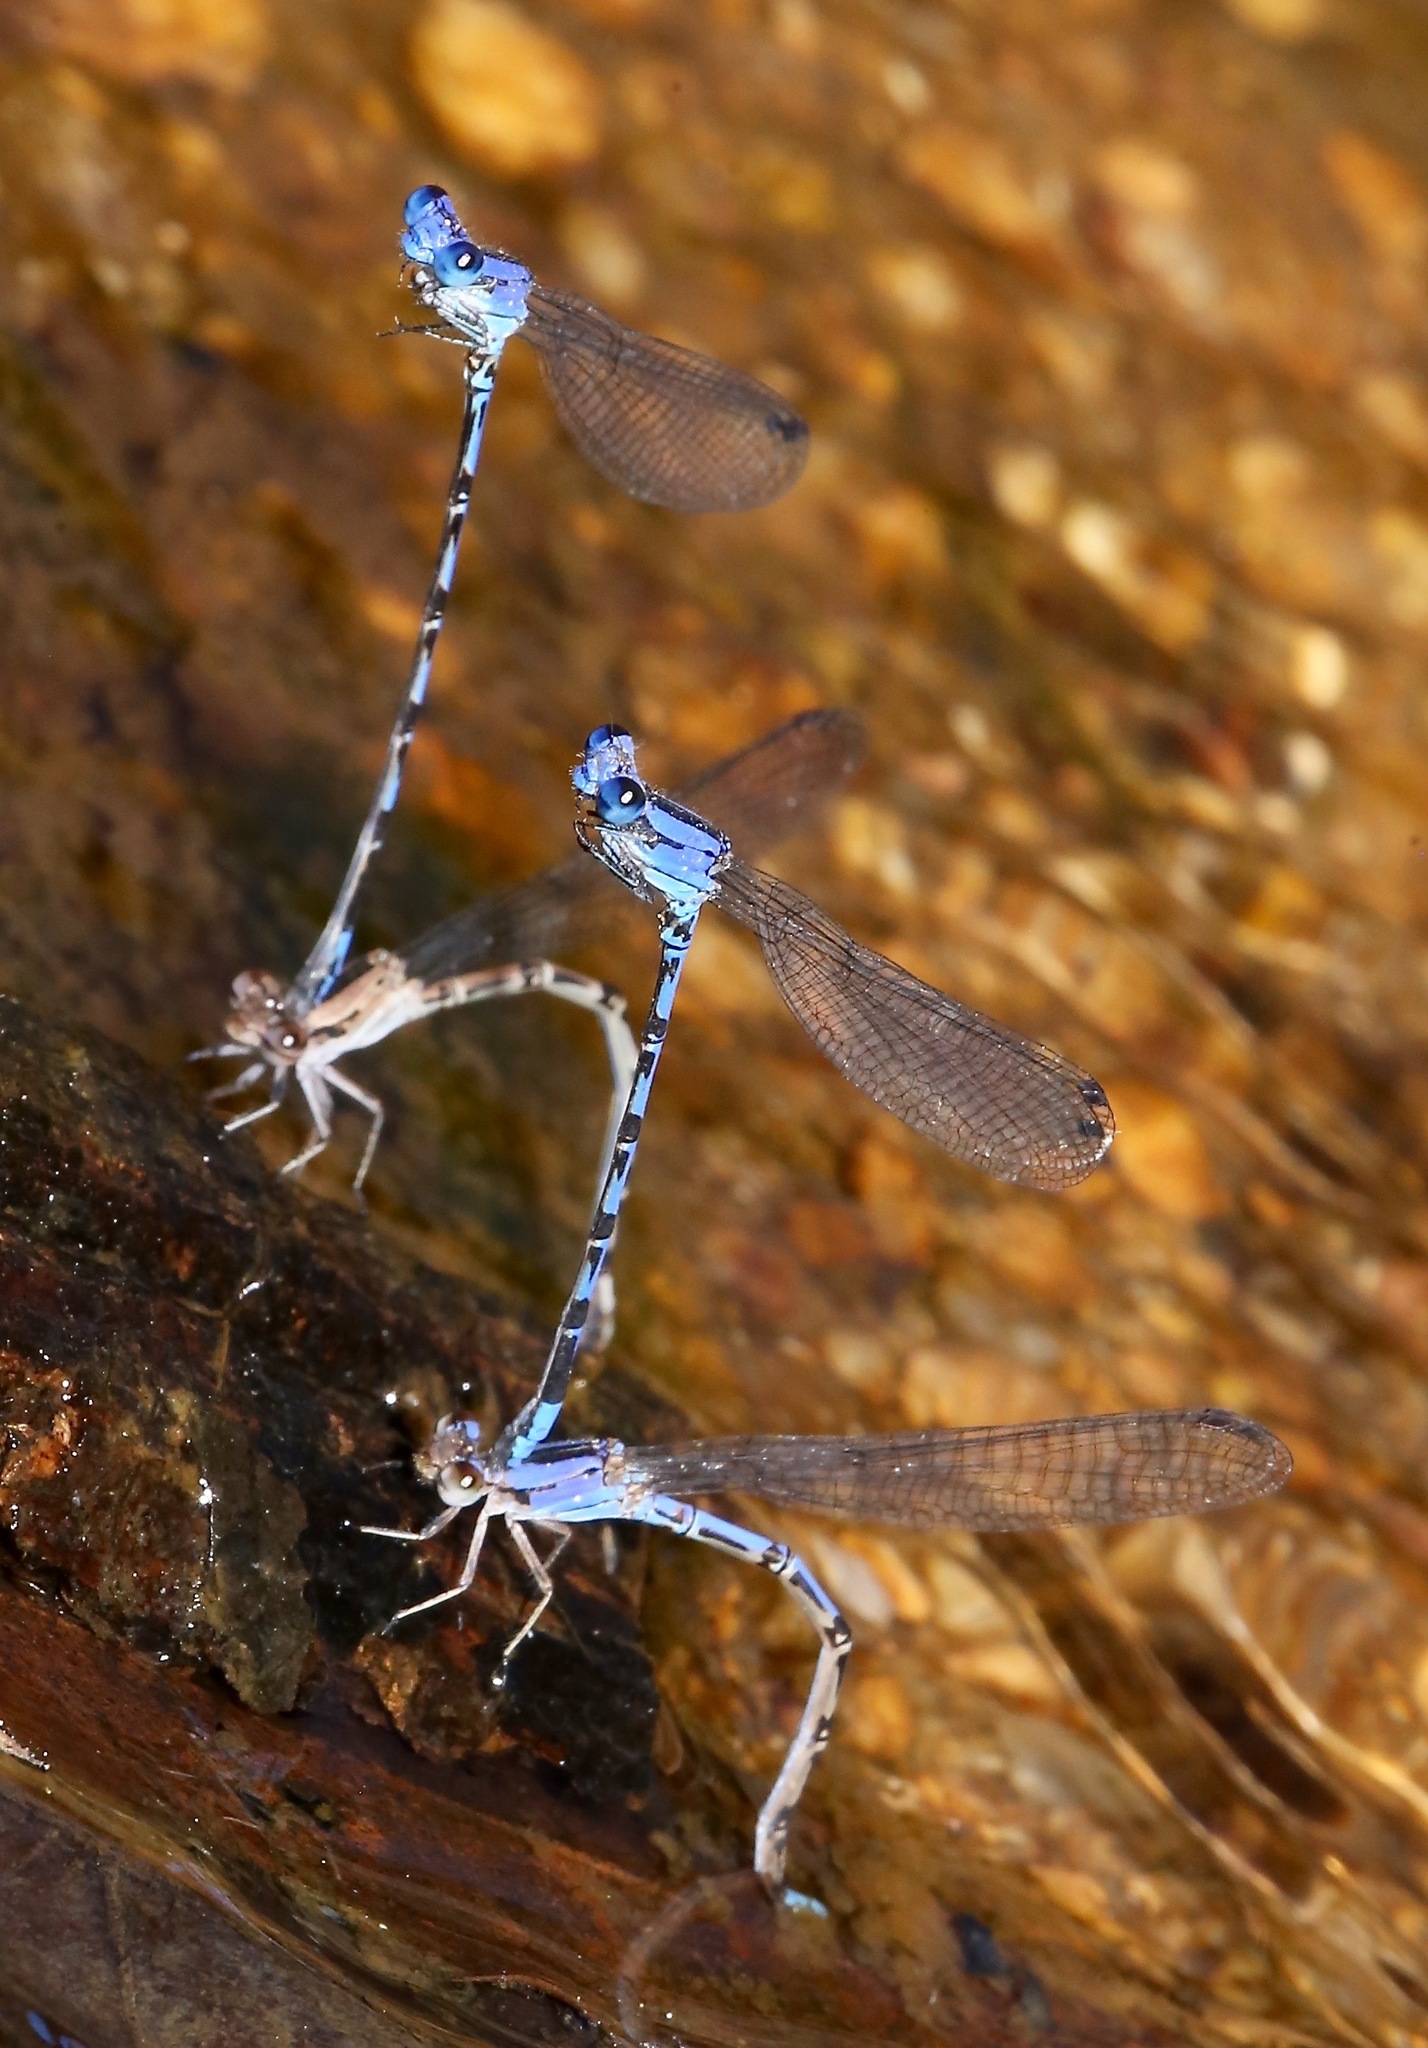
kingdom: Animalia
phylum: Arthropoda
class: Insecta
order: Odonata
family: Coenagrionidae
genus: Argia
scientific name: Argia extranea
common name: Spine-tipped dancer
